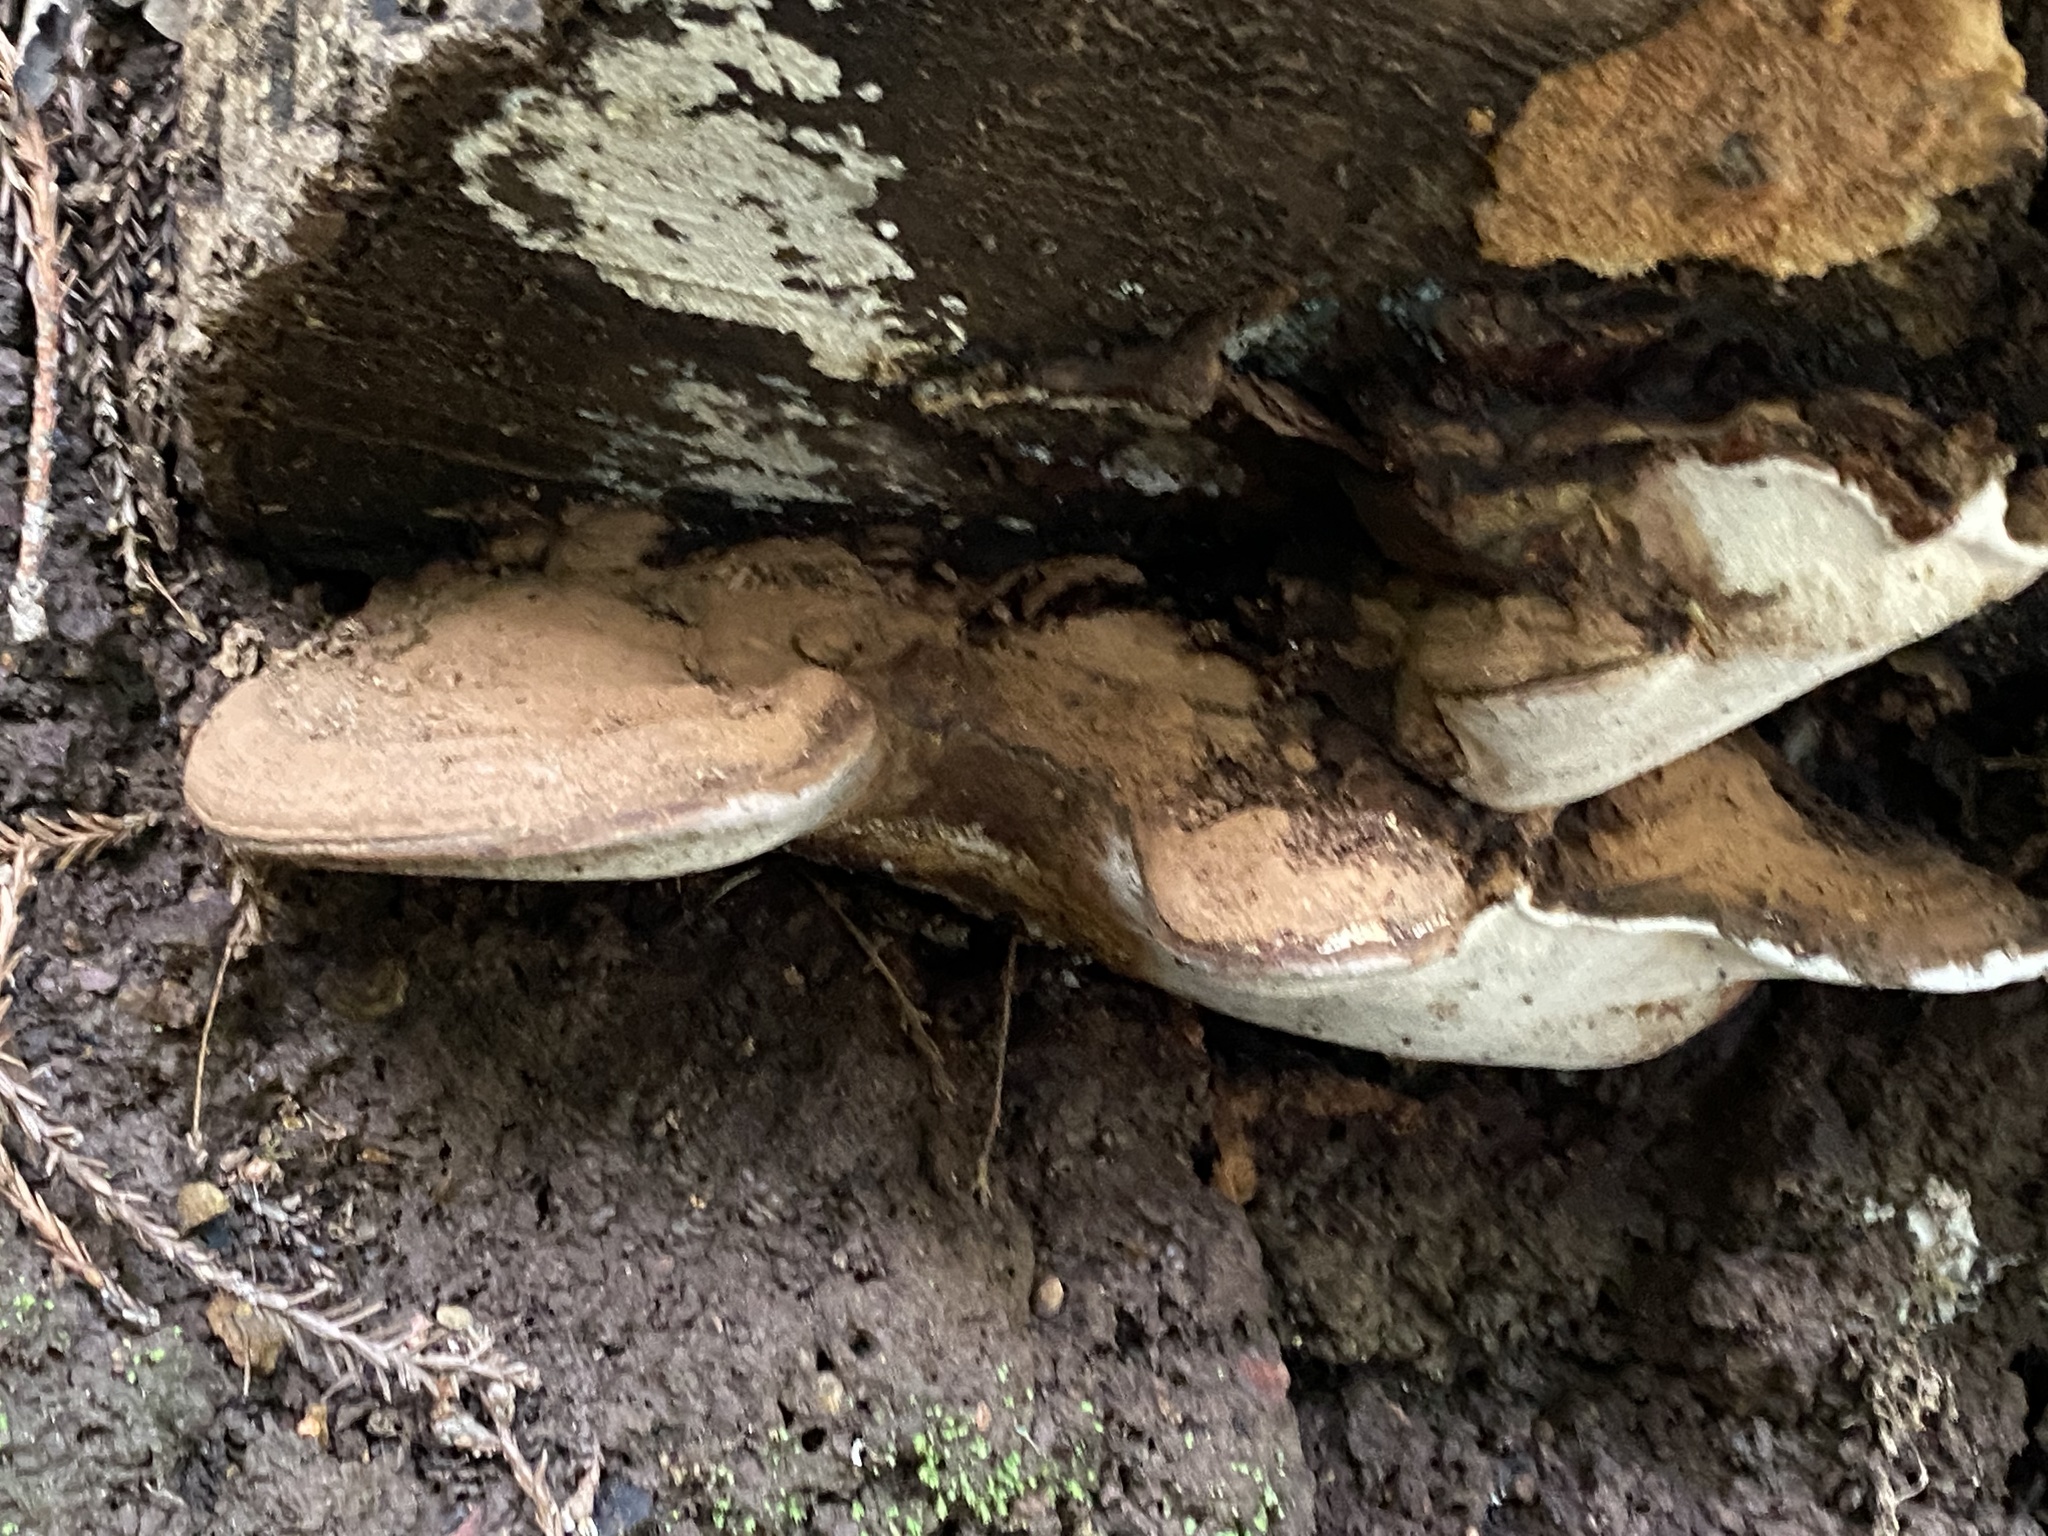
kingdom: Fungi
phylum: Basidiomycota
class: Agaricomycetes
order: Polyporales
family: Polyporaceae
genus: Ganoderma
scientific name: Ganoderma brownii
